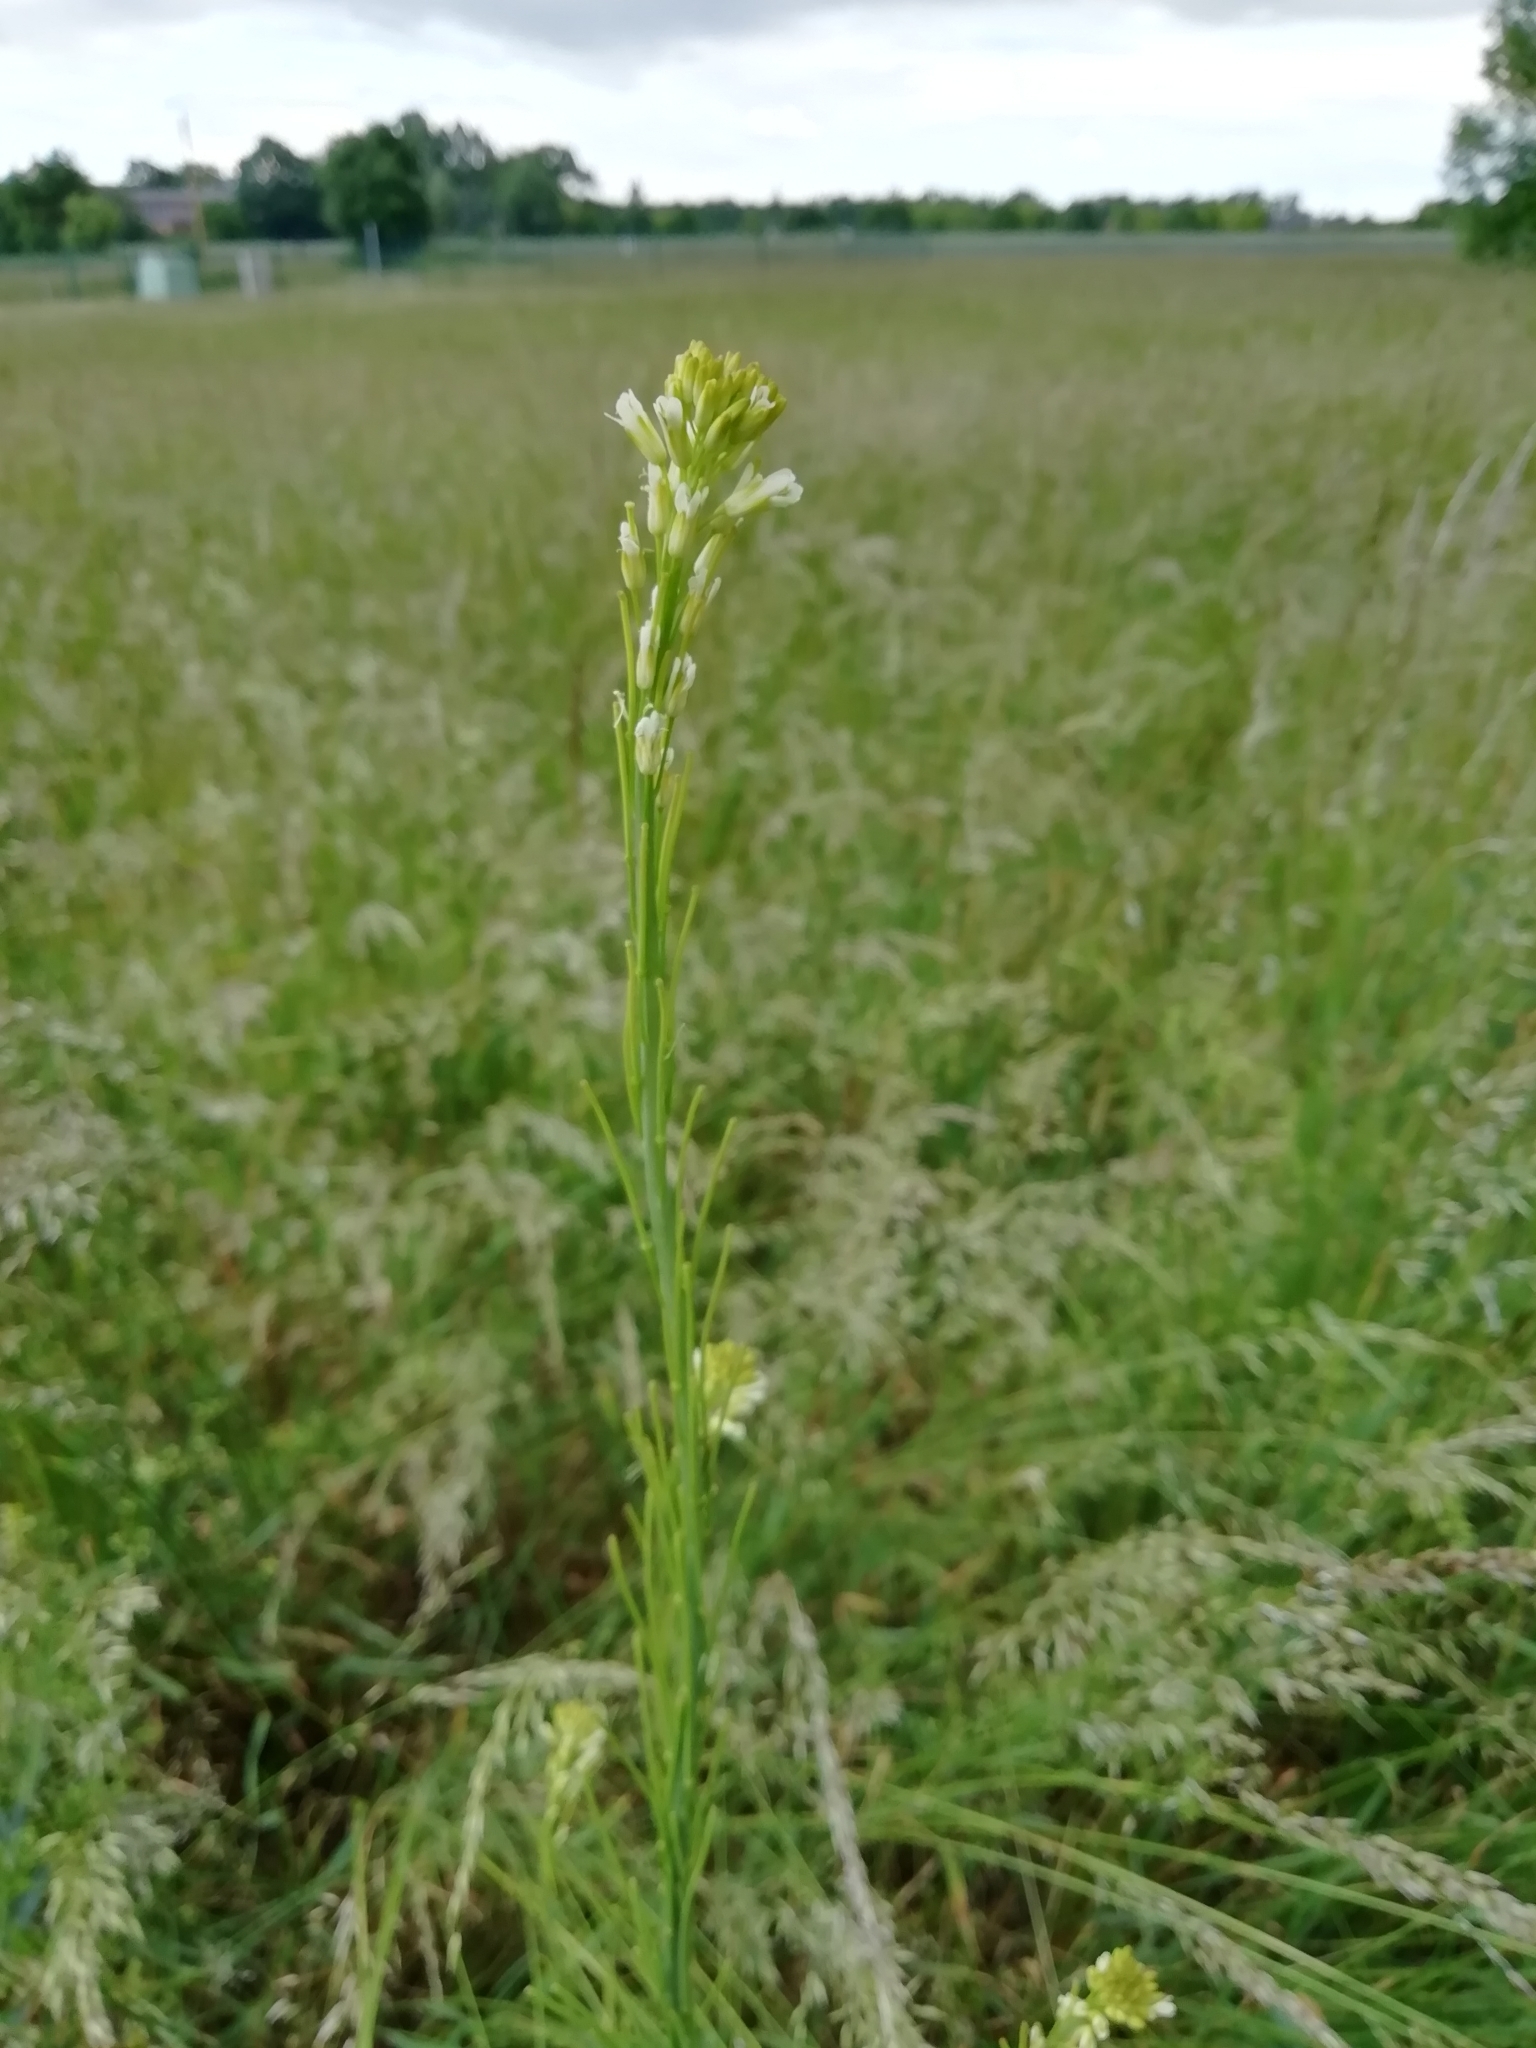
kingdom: Plantae
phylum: Tracheophyta
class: Magnoliopsida
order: Brassicales
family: Brassicaceae
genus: Turritis
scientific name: Turritis glabra
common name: Tower rockcress
